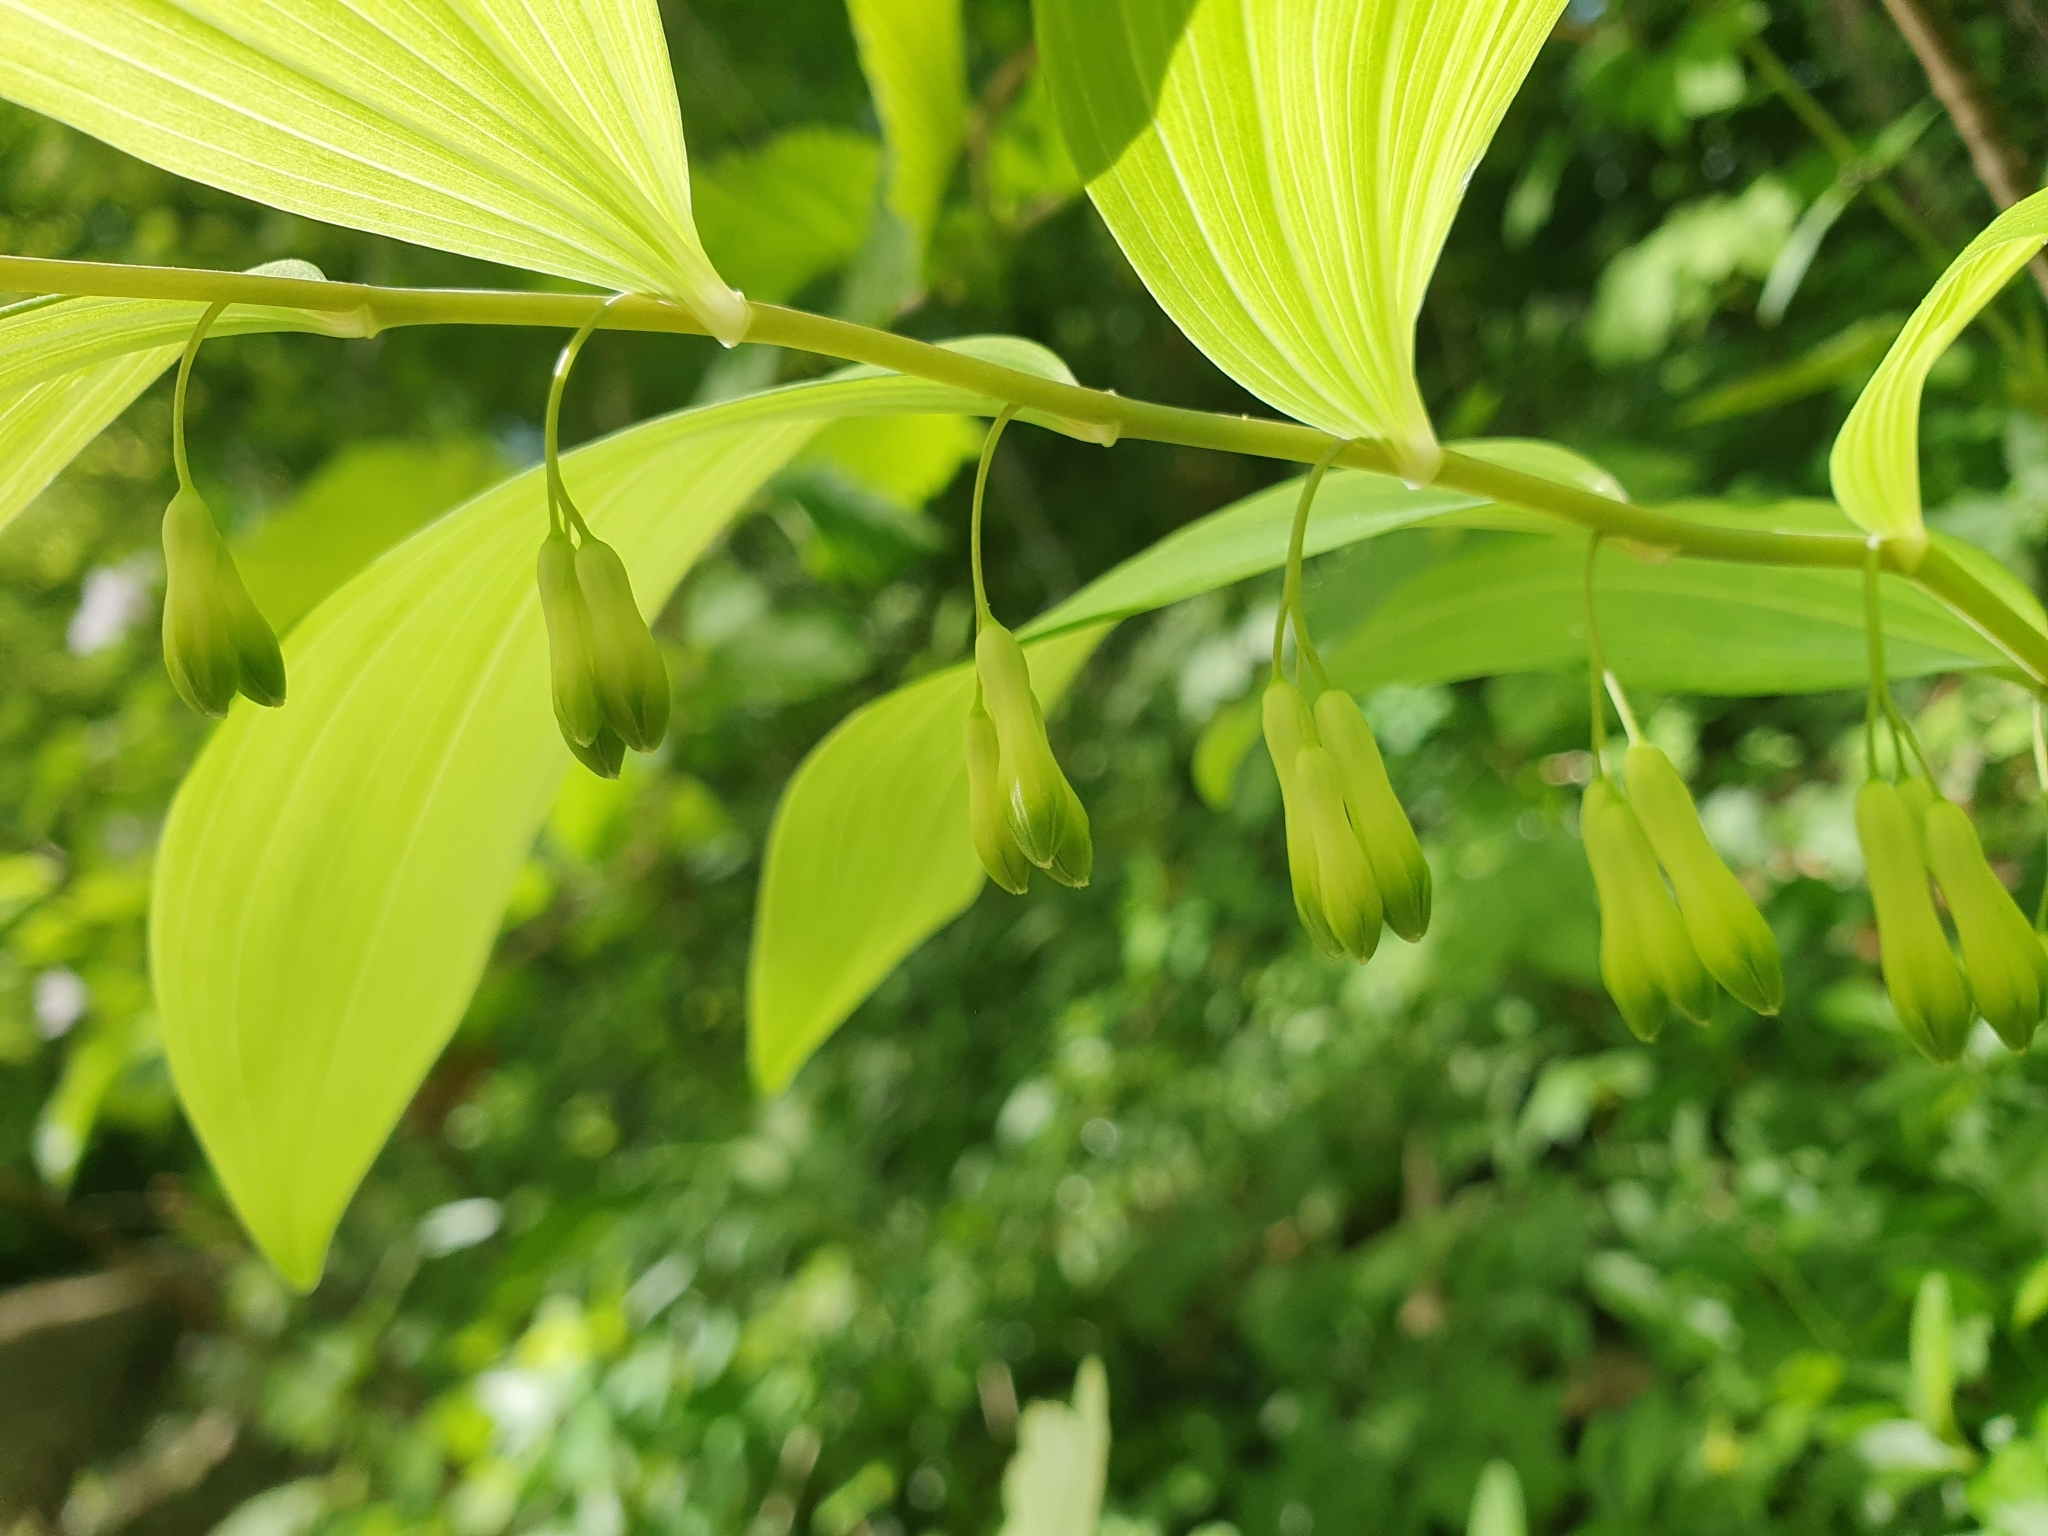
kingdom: Plantae
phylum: Tracheophyta
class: Liliopsida
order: Asparagales
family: Asparagaceae
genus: Polygonatum
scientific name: Polygonatum multiflorum
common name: Solomon's-seal
